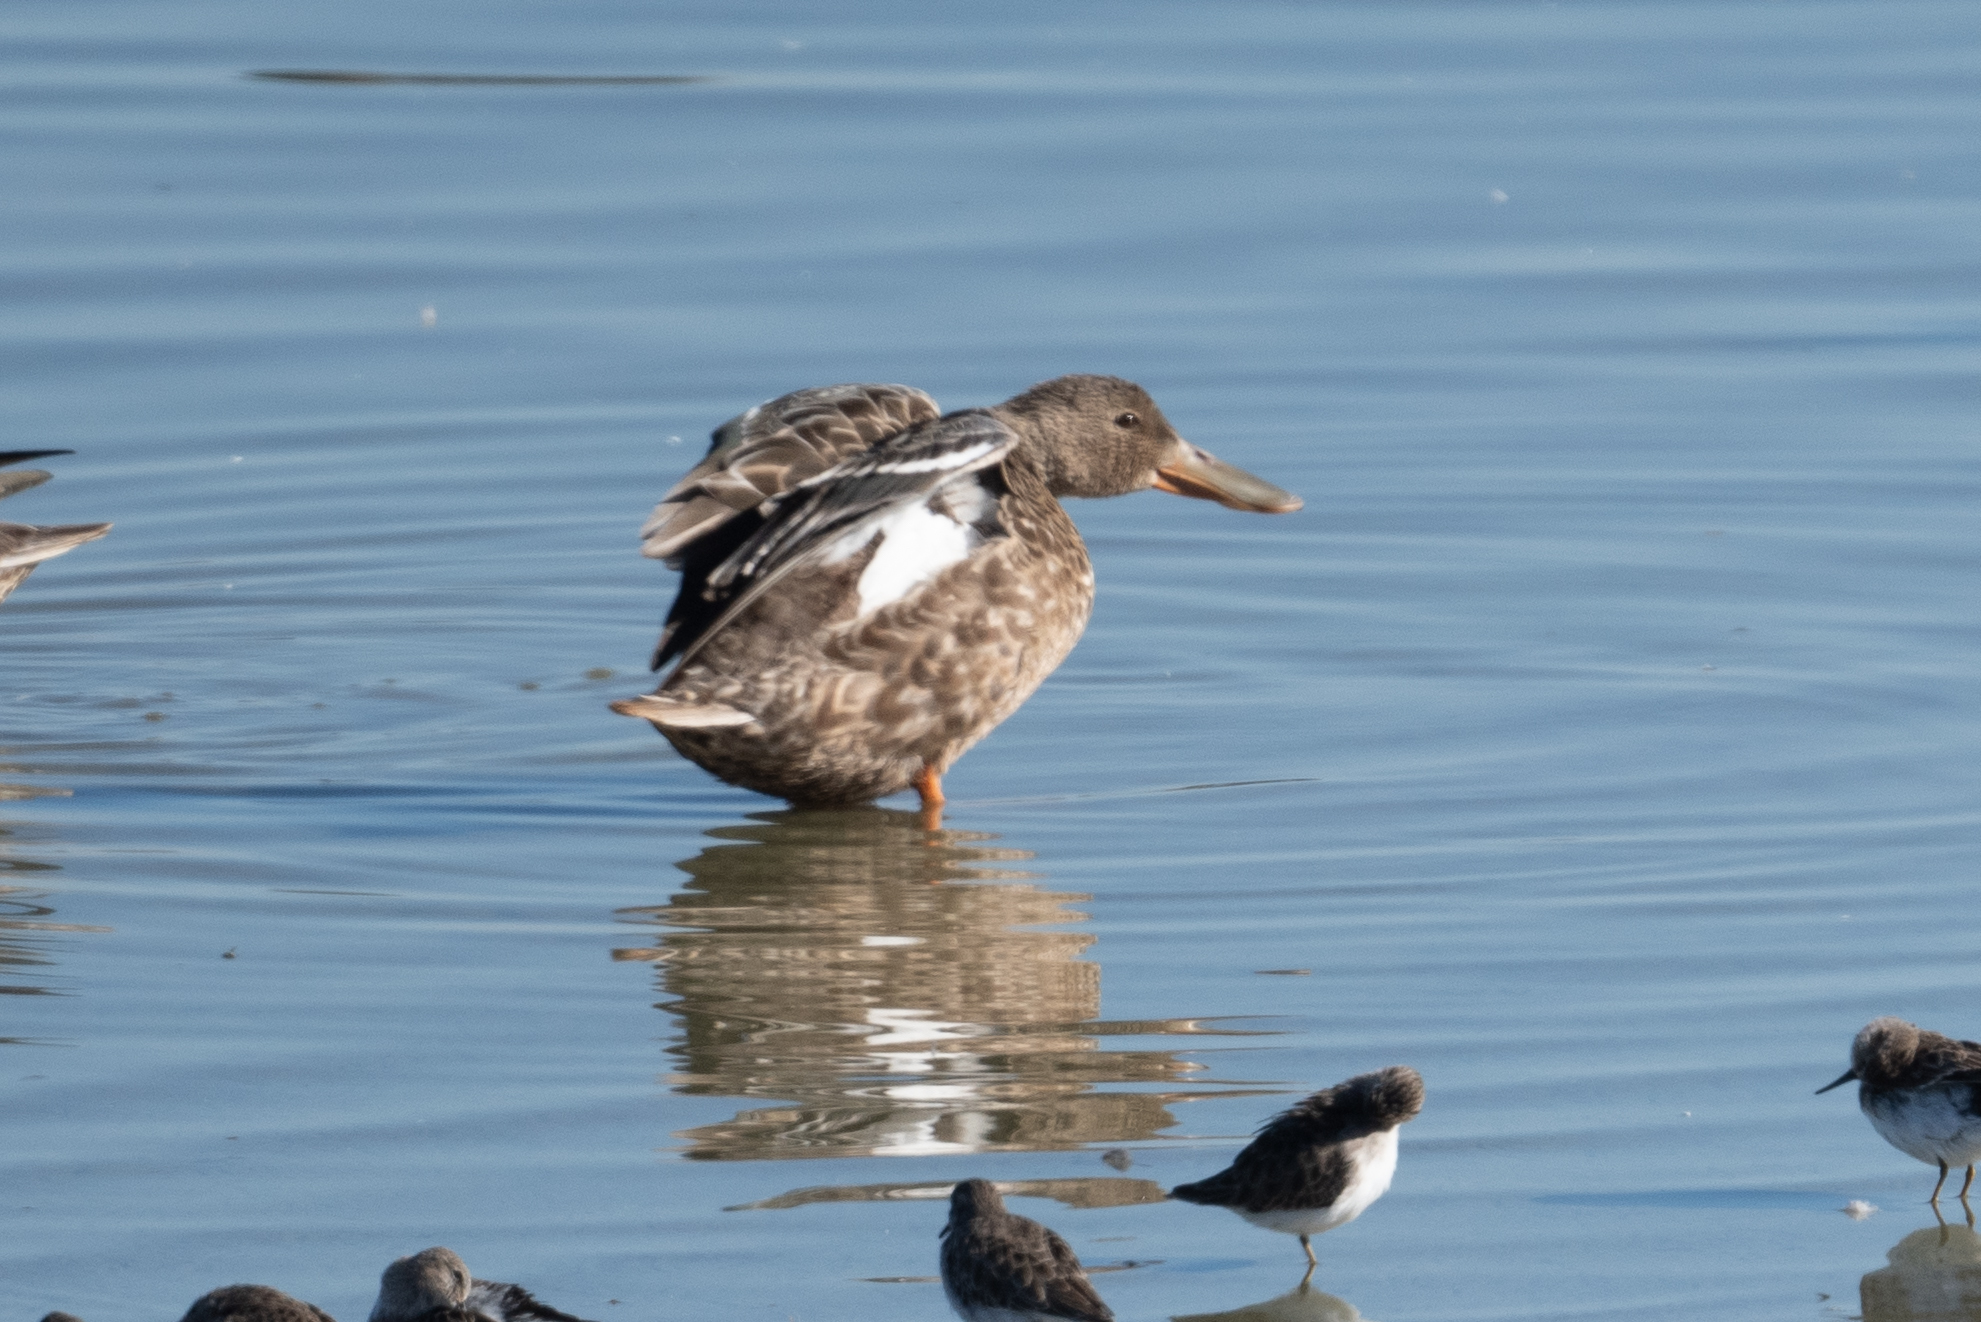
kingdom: Animalia
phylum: Chordata
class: Aves
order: Anseriformes
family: Anatidae
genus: Spatula
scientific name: Spatula clypeata
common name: Northern shoveler
